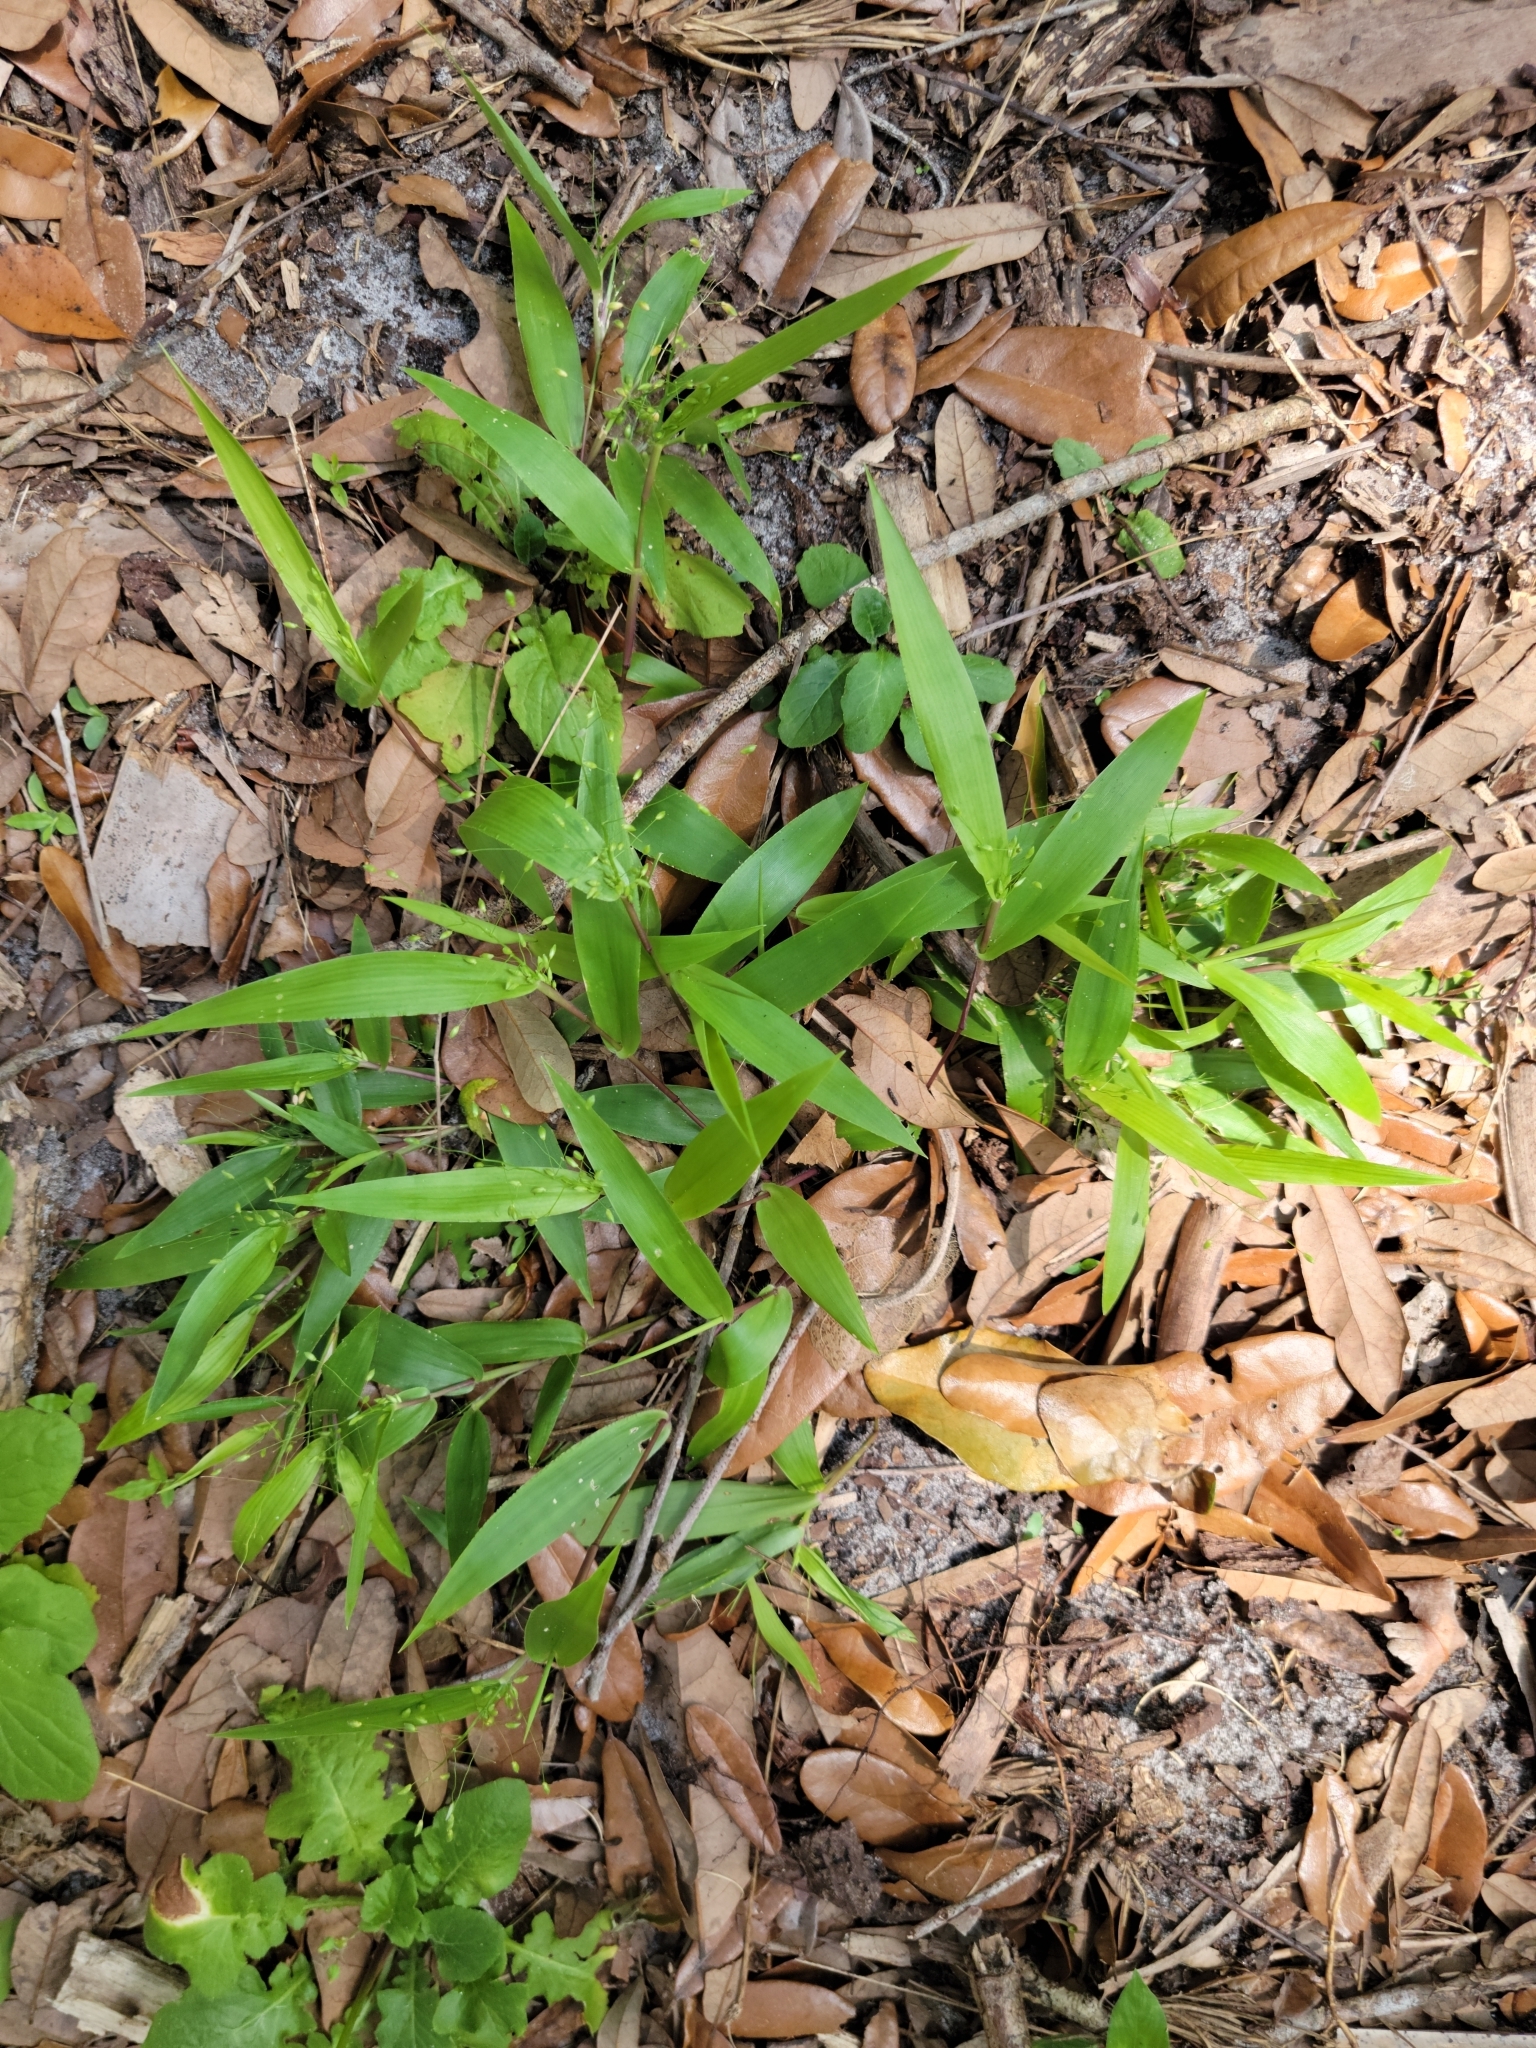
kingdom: Plantae
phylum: Tracheophyta
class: Liliopsida
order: Poales
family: Poaceae
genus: Dichanthelium
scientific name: Dichanthelium commutatum
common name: Variable witchgrass
